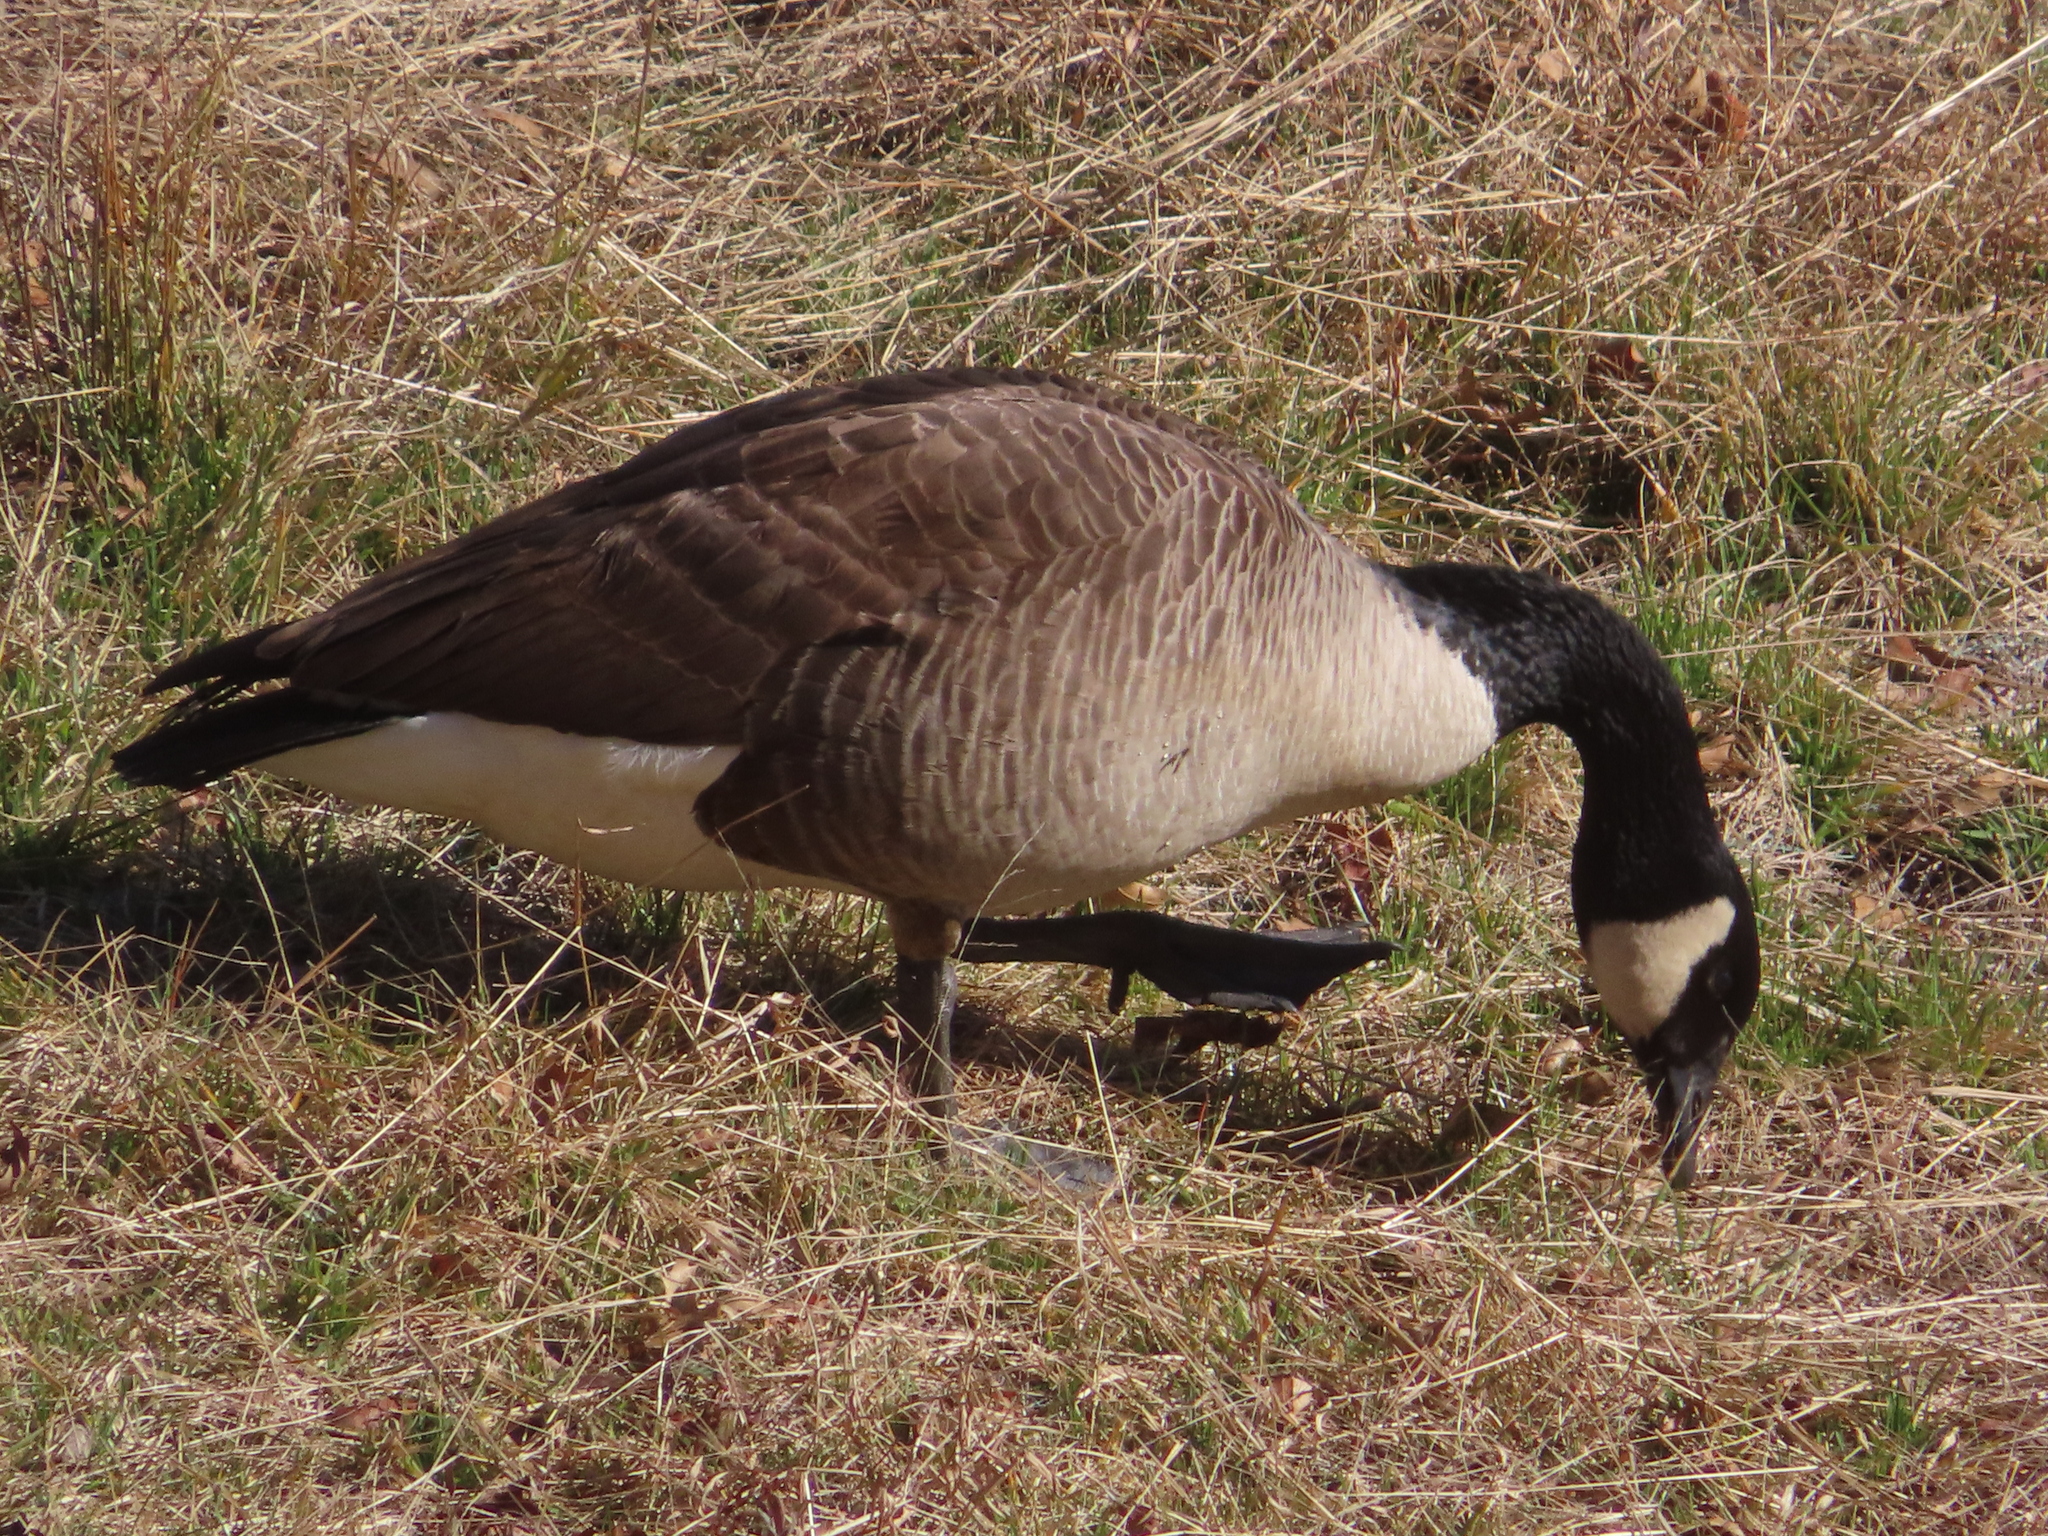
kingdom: Animalia
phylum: Chordata
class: Aves
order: Anseriformes
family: Anatidae
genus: Branta
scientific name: Branta canadensis
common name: Canada goose
